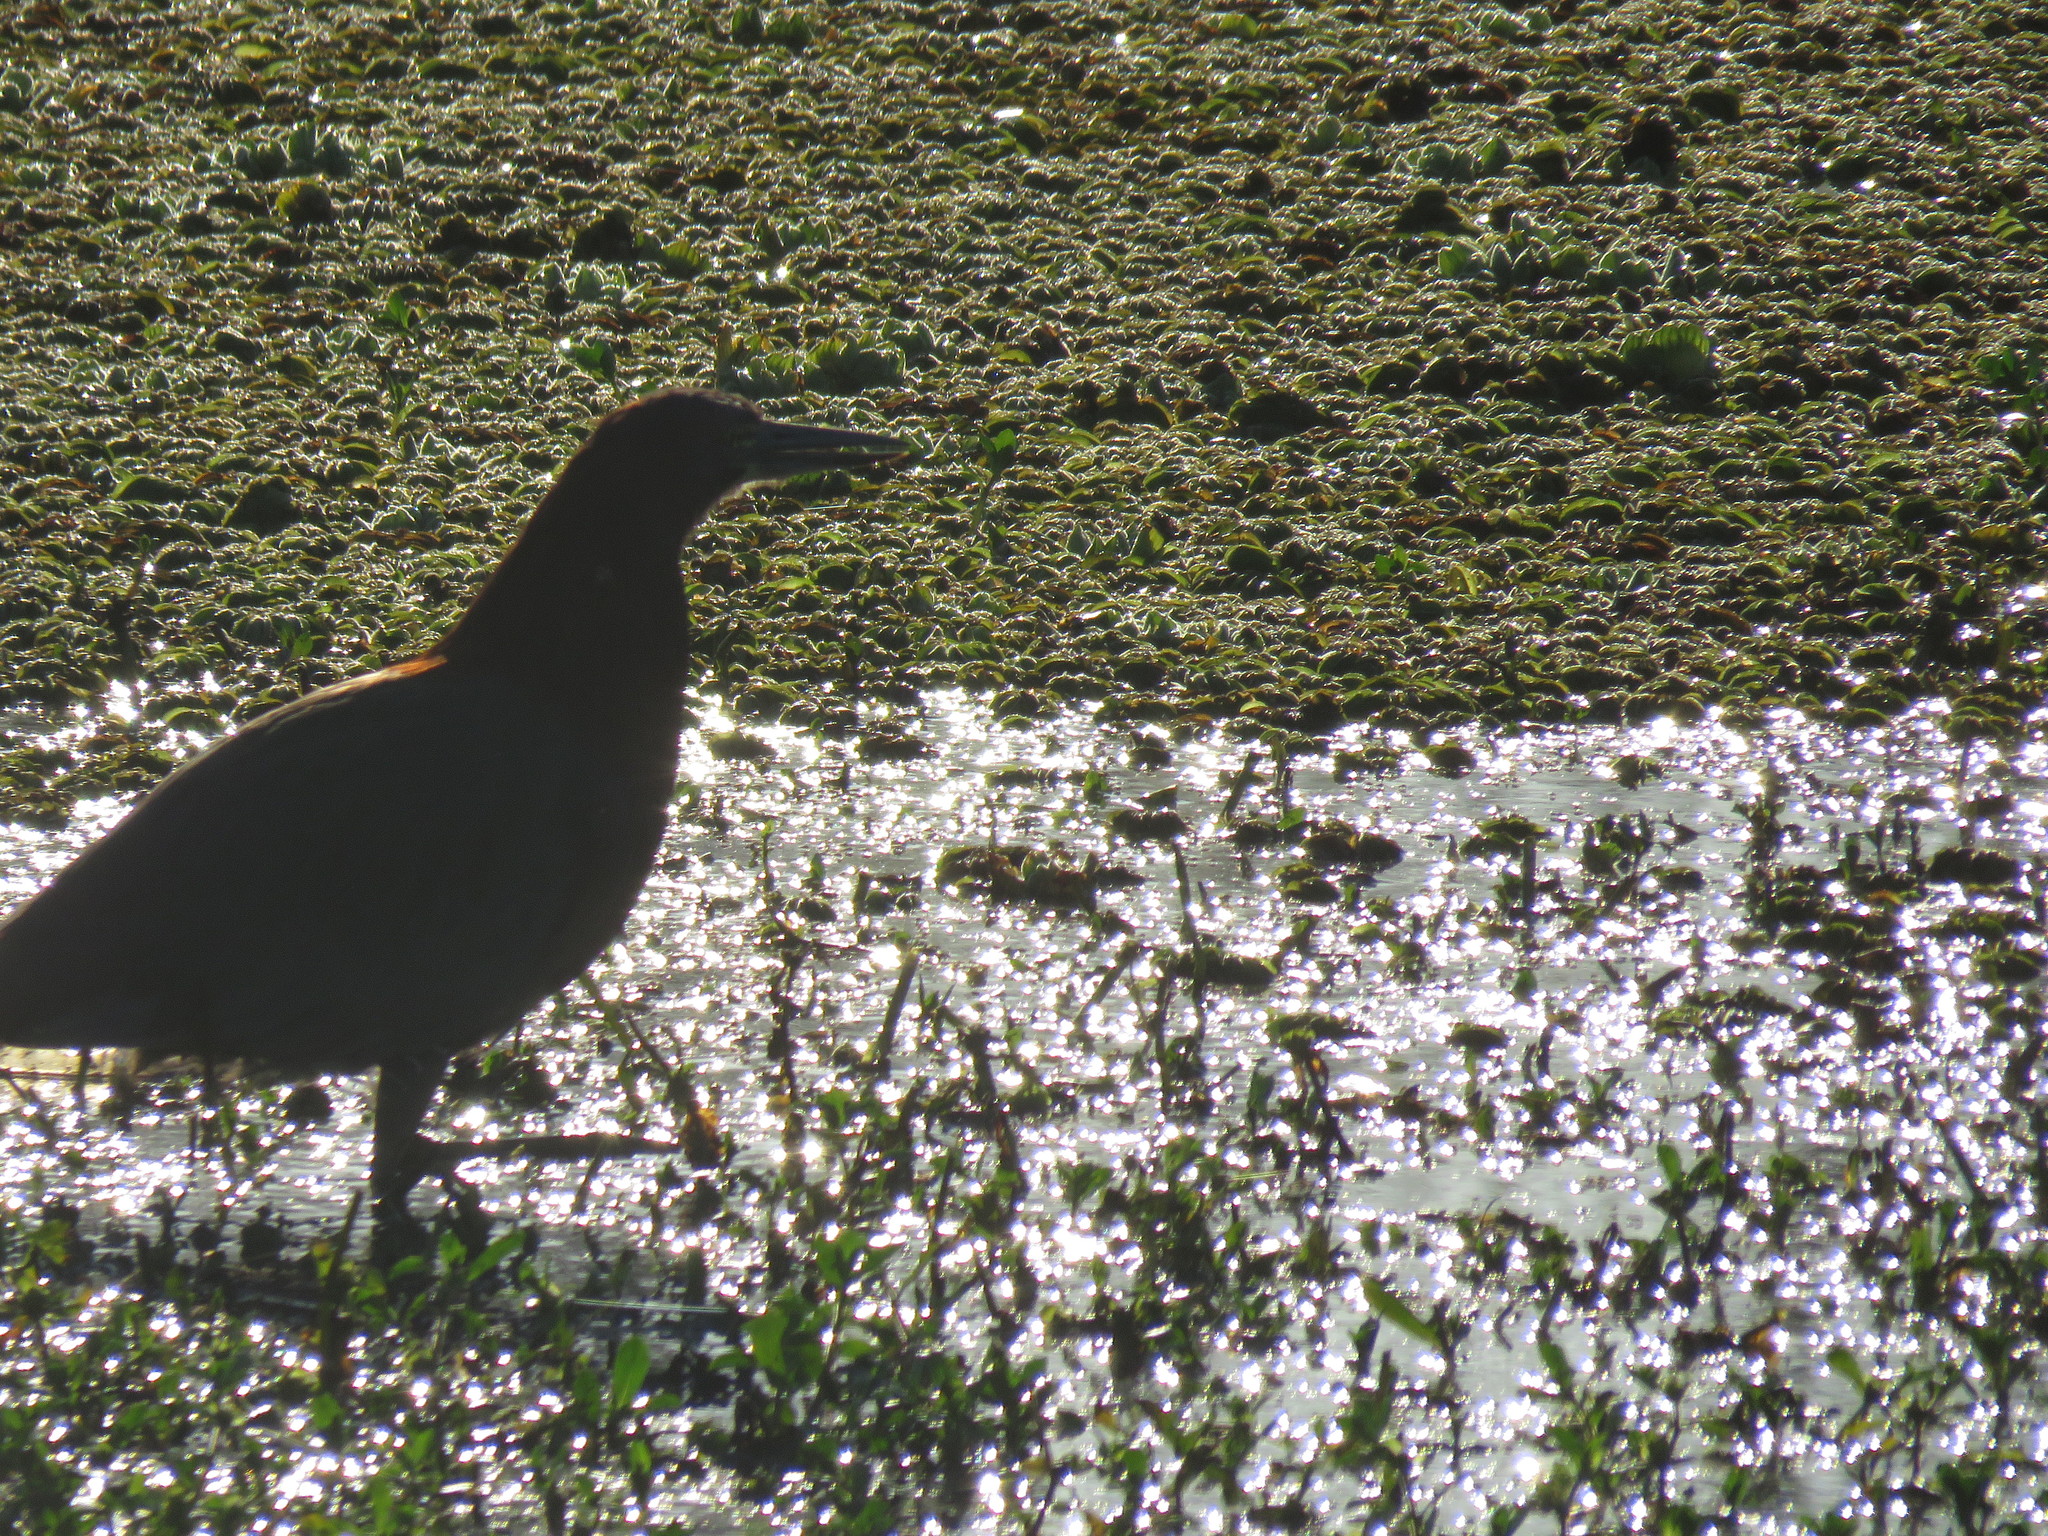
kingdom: Animalia
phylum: Chordata
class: Aves
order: Pelecaniformes
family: Ardeidae
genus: Tigrisoma
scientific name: Tigrisoma lineatum
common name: Rufescent tiger-heron
